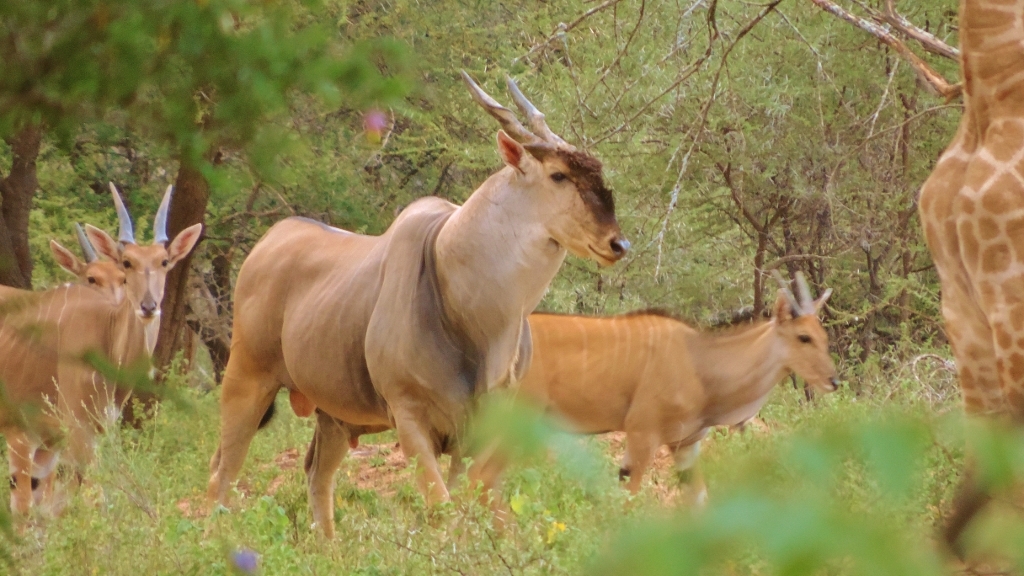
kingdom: Animalia
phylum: Chordata
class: Mammalia
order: Artiodactyla
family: Bovidae
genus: Taurotragus
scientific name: Taurotragus oryx
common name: Common eland
